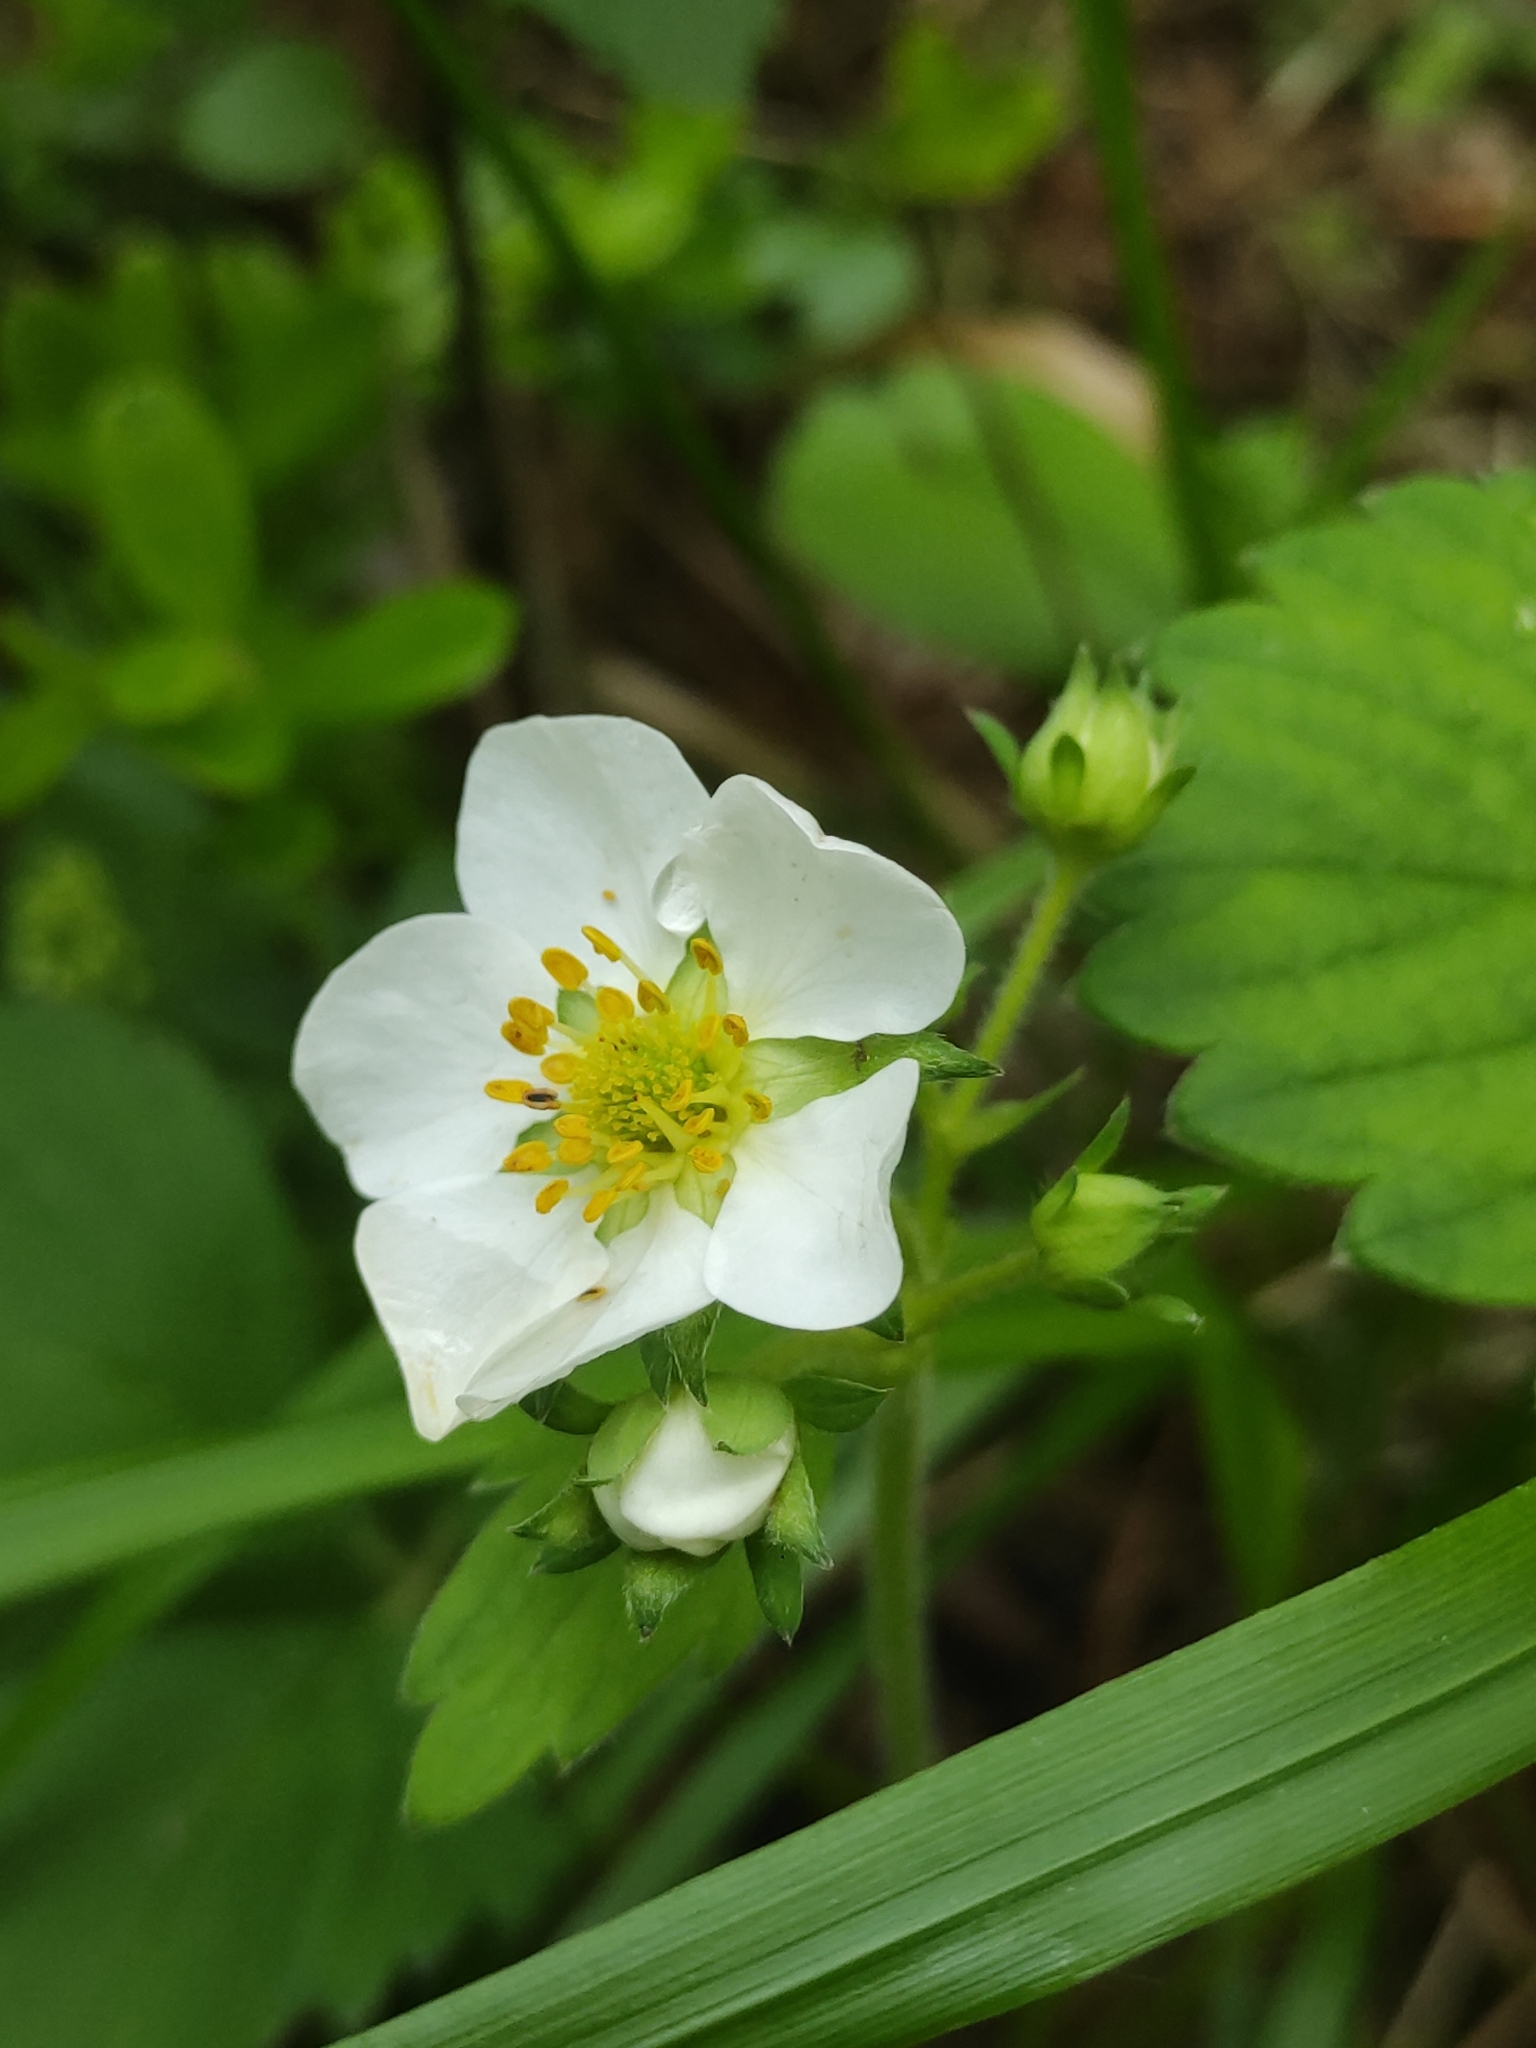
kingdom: Plantae
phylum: Tracheophyta
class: Magnoliopsida
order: Rosales
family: Rosaceae
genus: Fragaria
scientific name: Fragaria ananassa
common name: Garden strawberry
